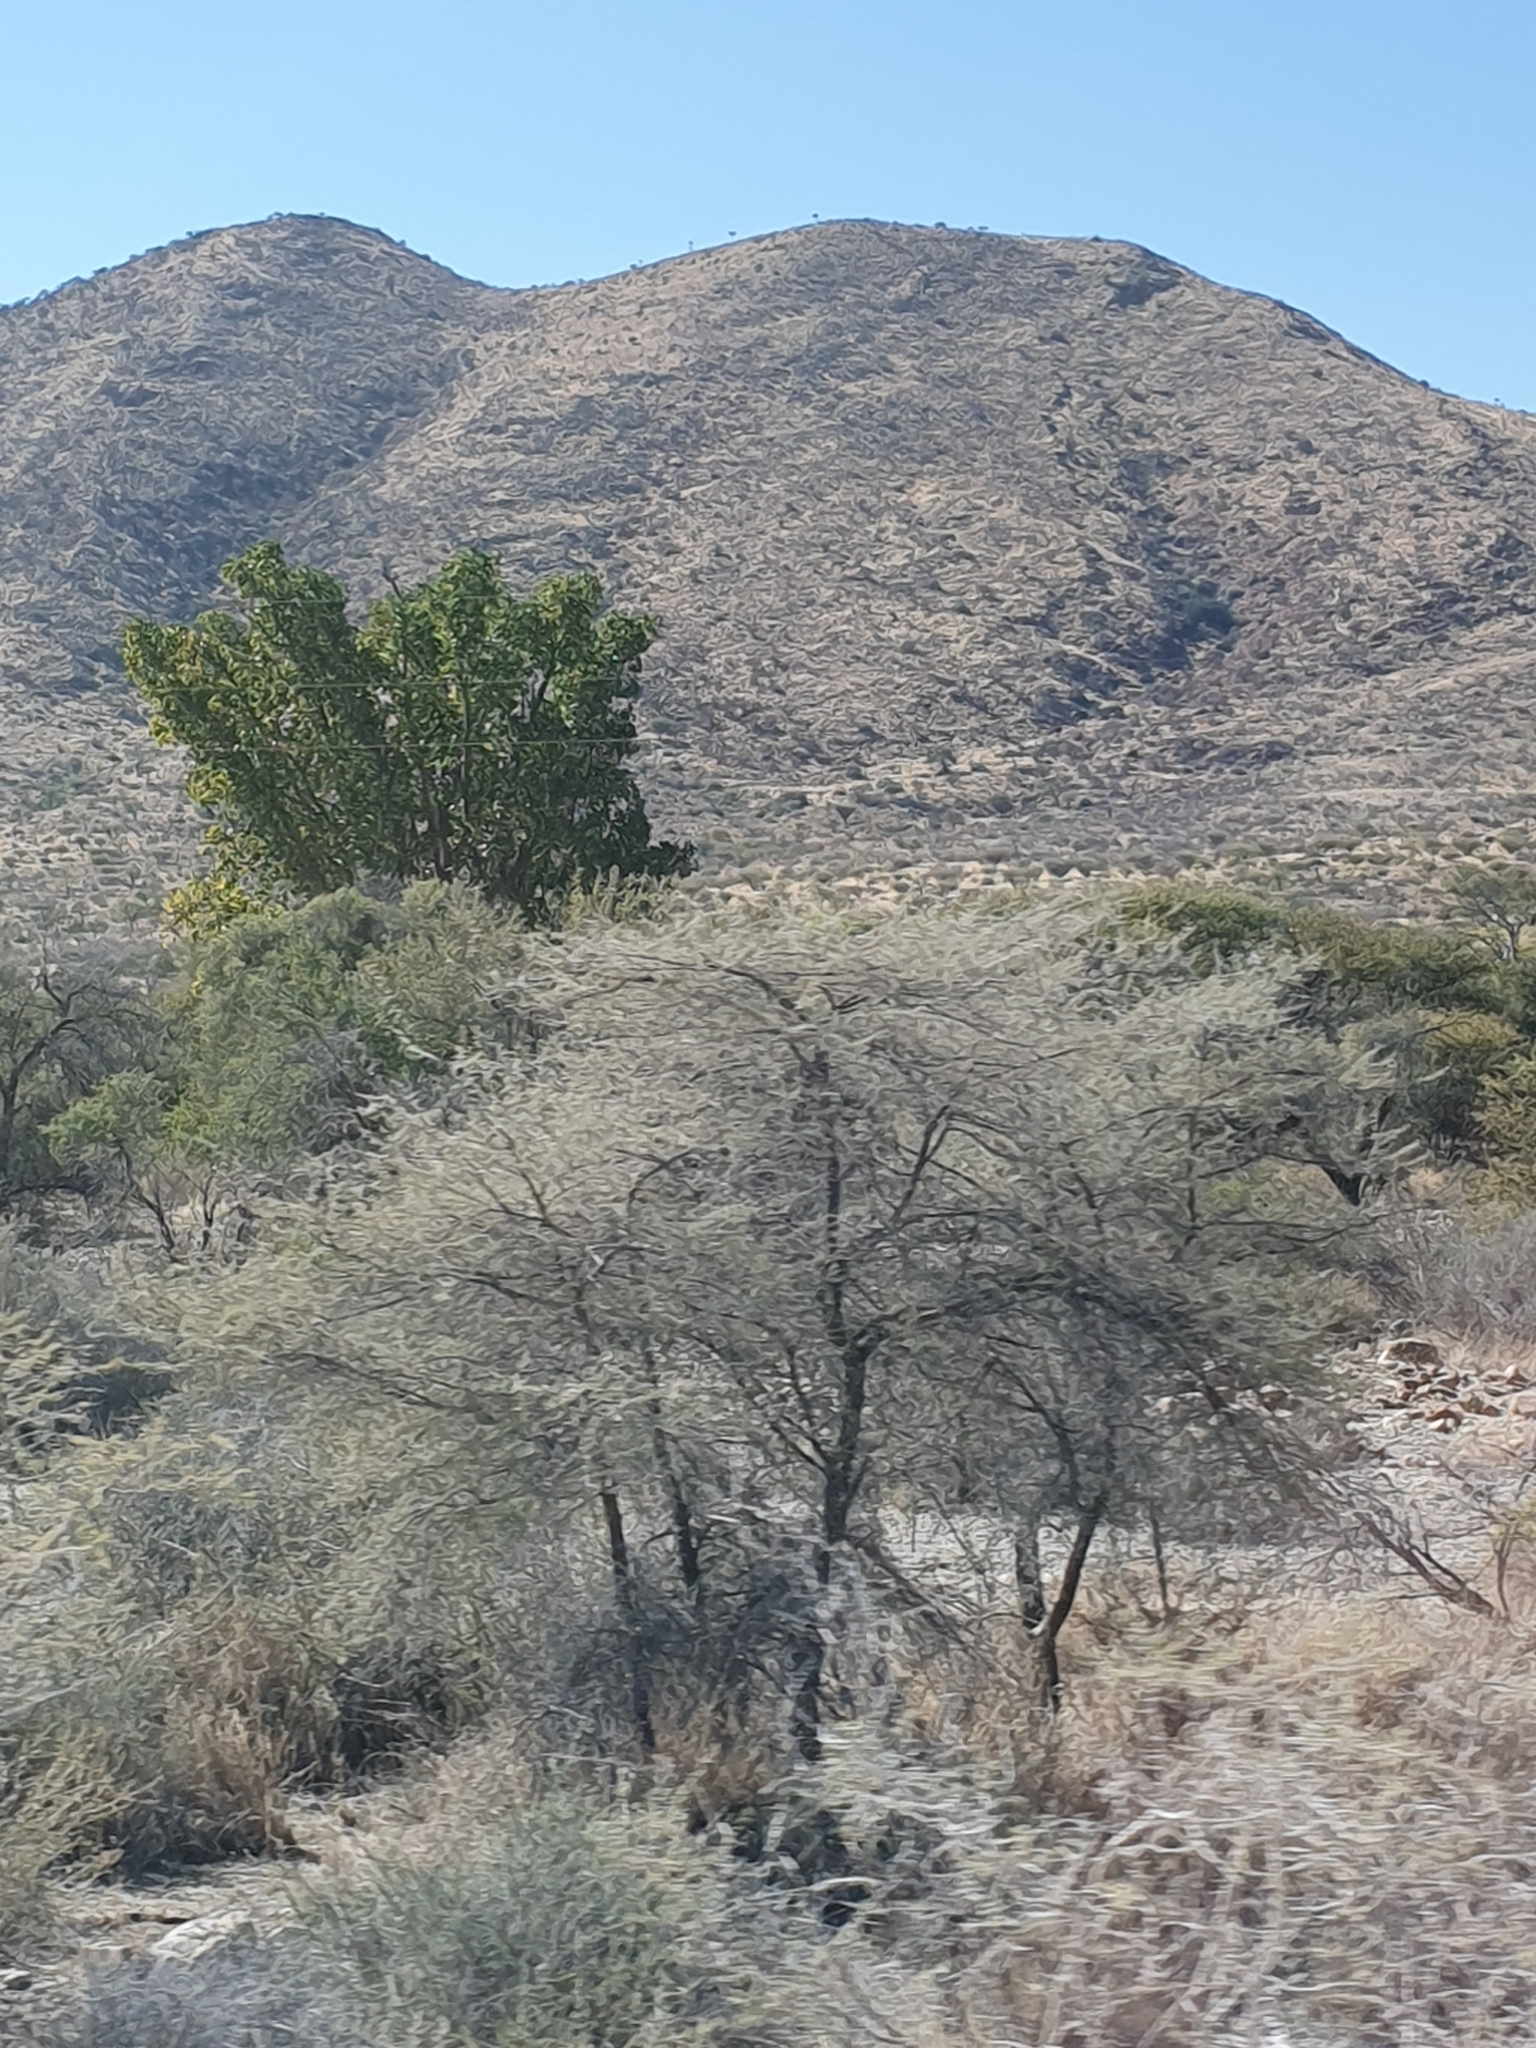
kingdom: Plantae
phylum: Tracheophyta
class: Magnoliopsida
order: Rosales
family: Moraceae
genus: Ficus
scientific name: Ficus sycomorus
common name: Sycomore
